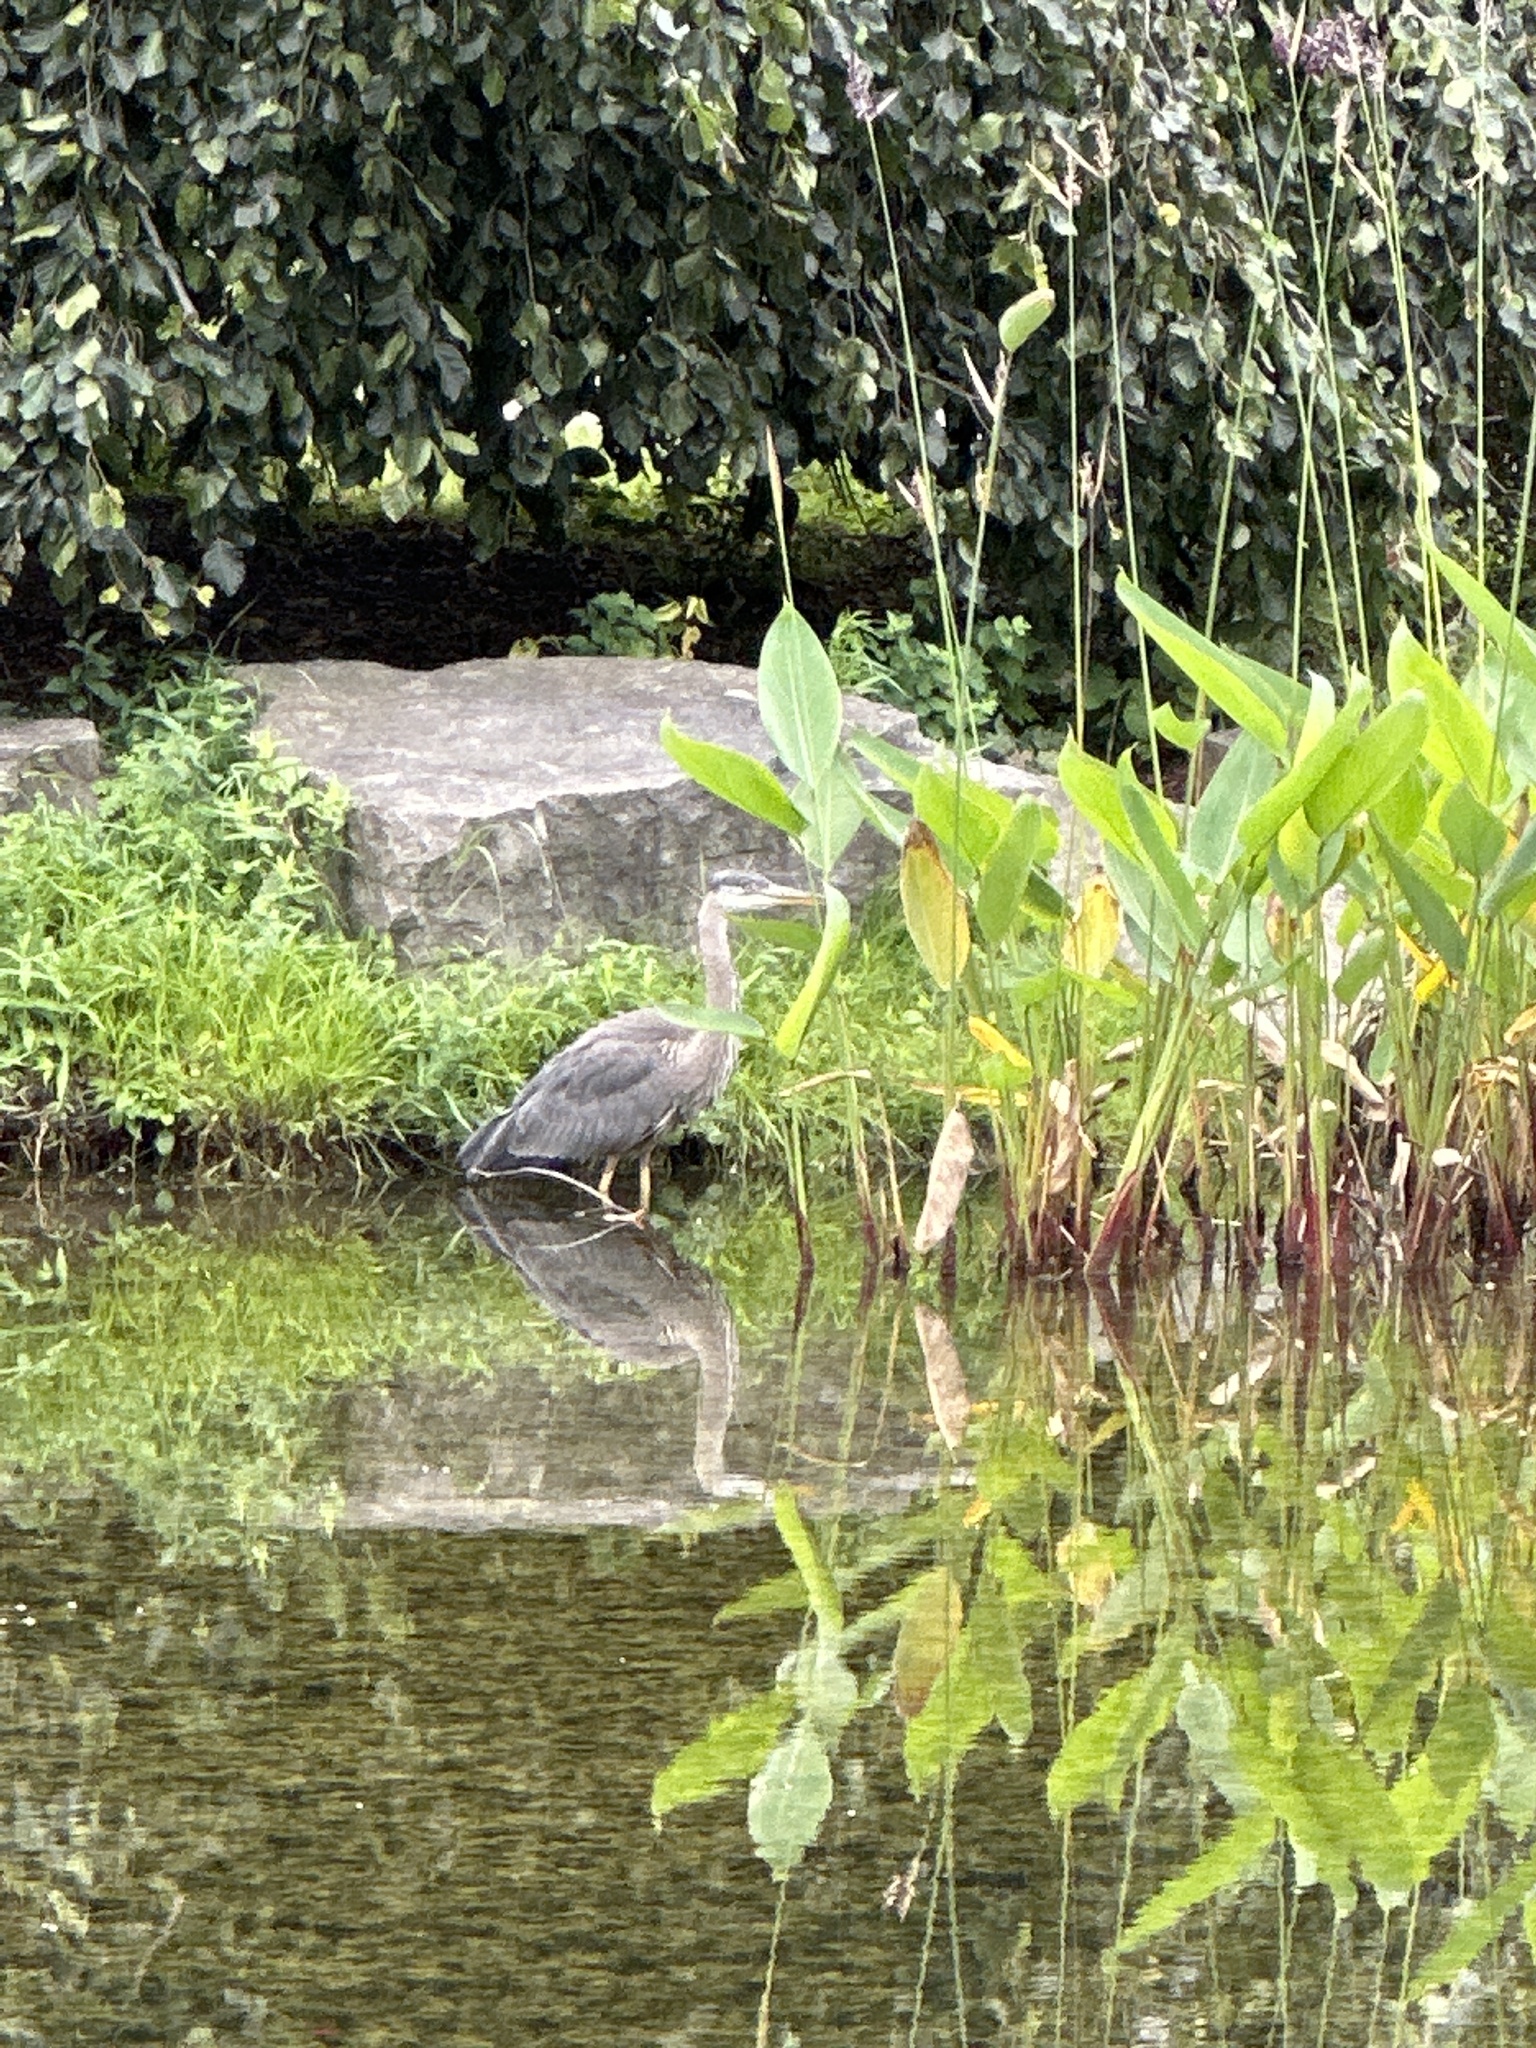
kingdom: Animalia
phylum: Chordata
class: Aves
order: Pelecaniformes
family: Ardeidae
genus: Ardea
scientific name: Ardea herodias
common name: Great blue heron
